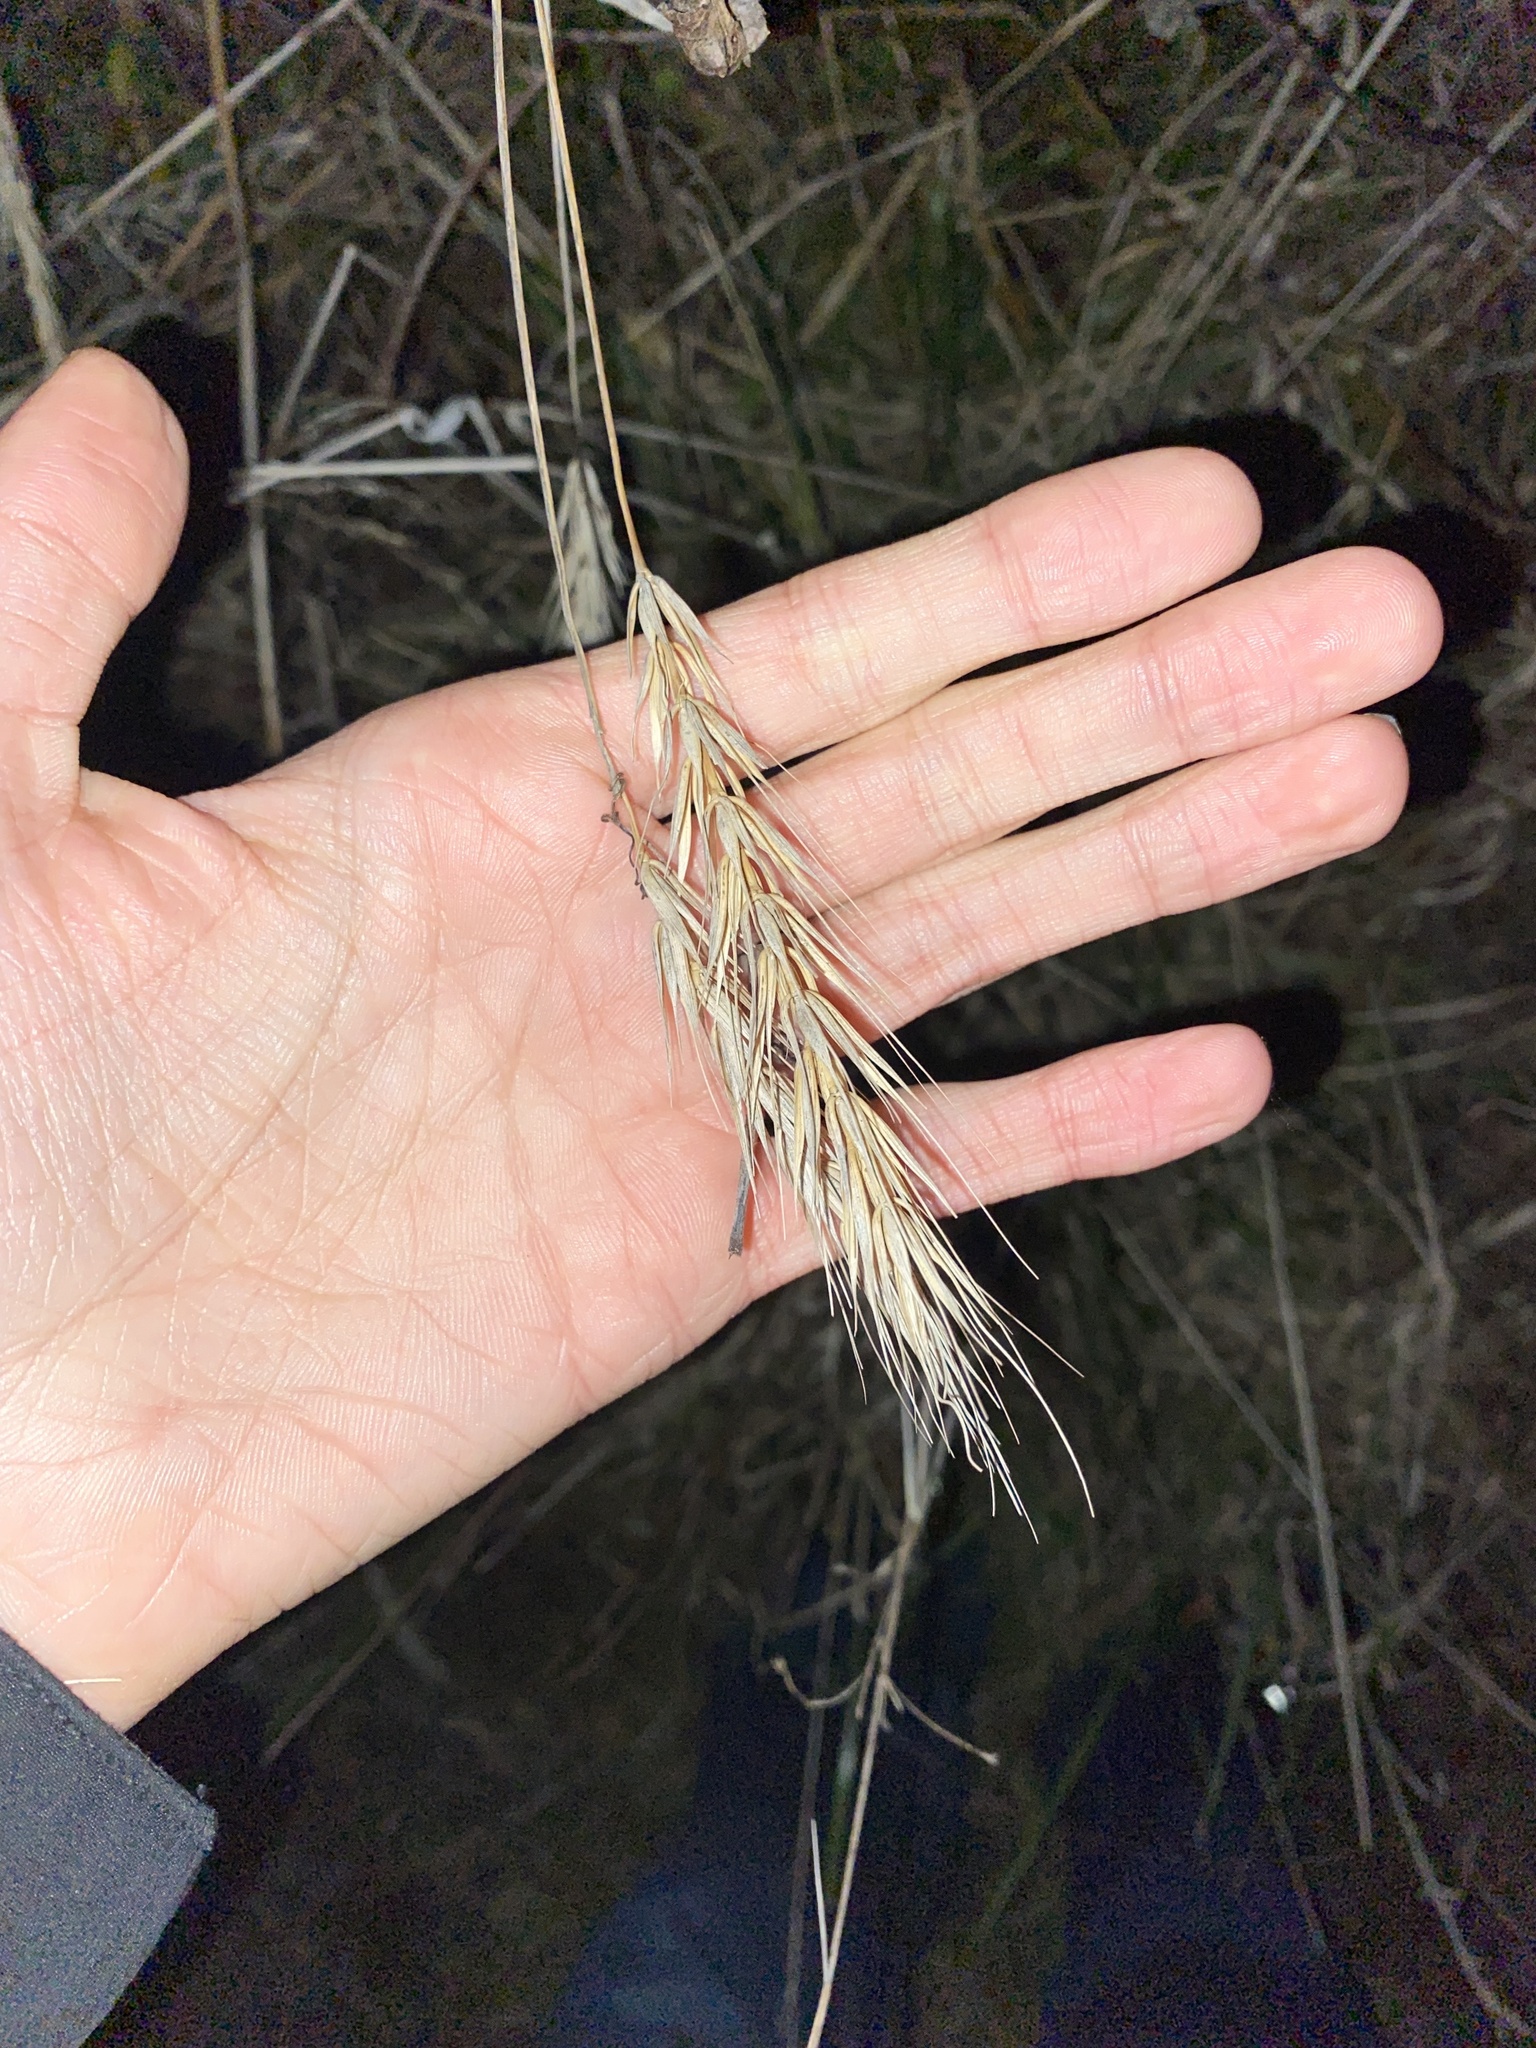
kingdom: Plantae
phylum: Tracheophyta
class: Liliopsida
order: Poales
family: Poaceae
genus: Elymus
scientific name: Elymus virginicus
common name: Common eastern wildrye
